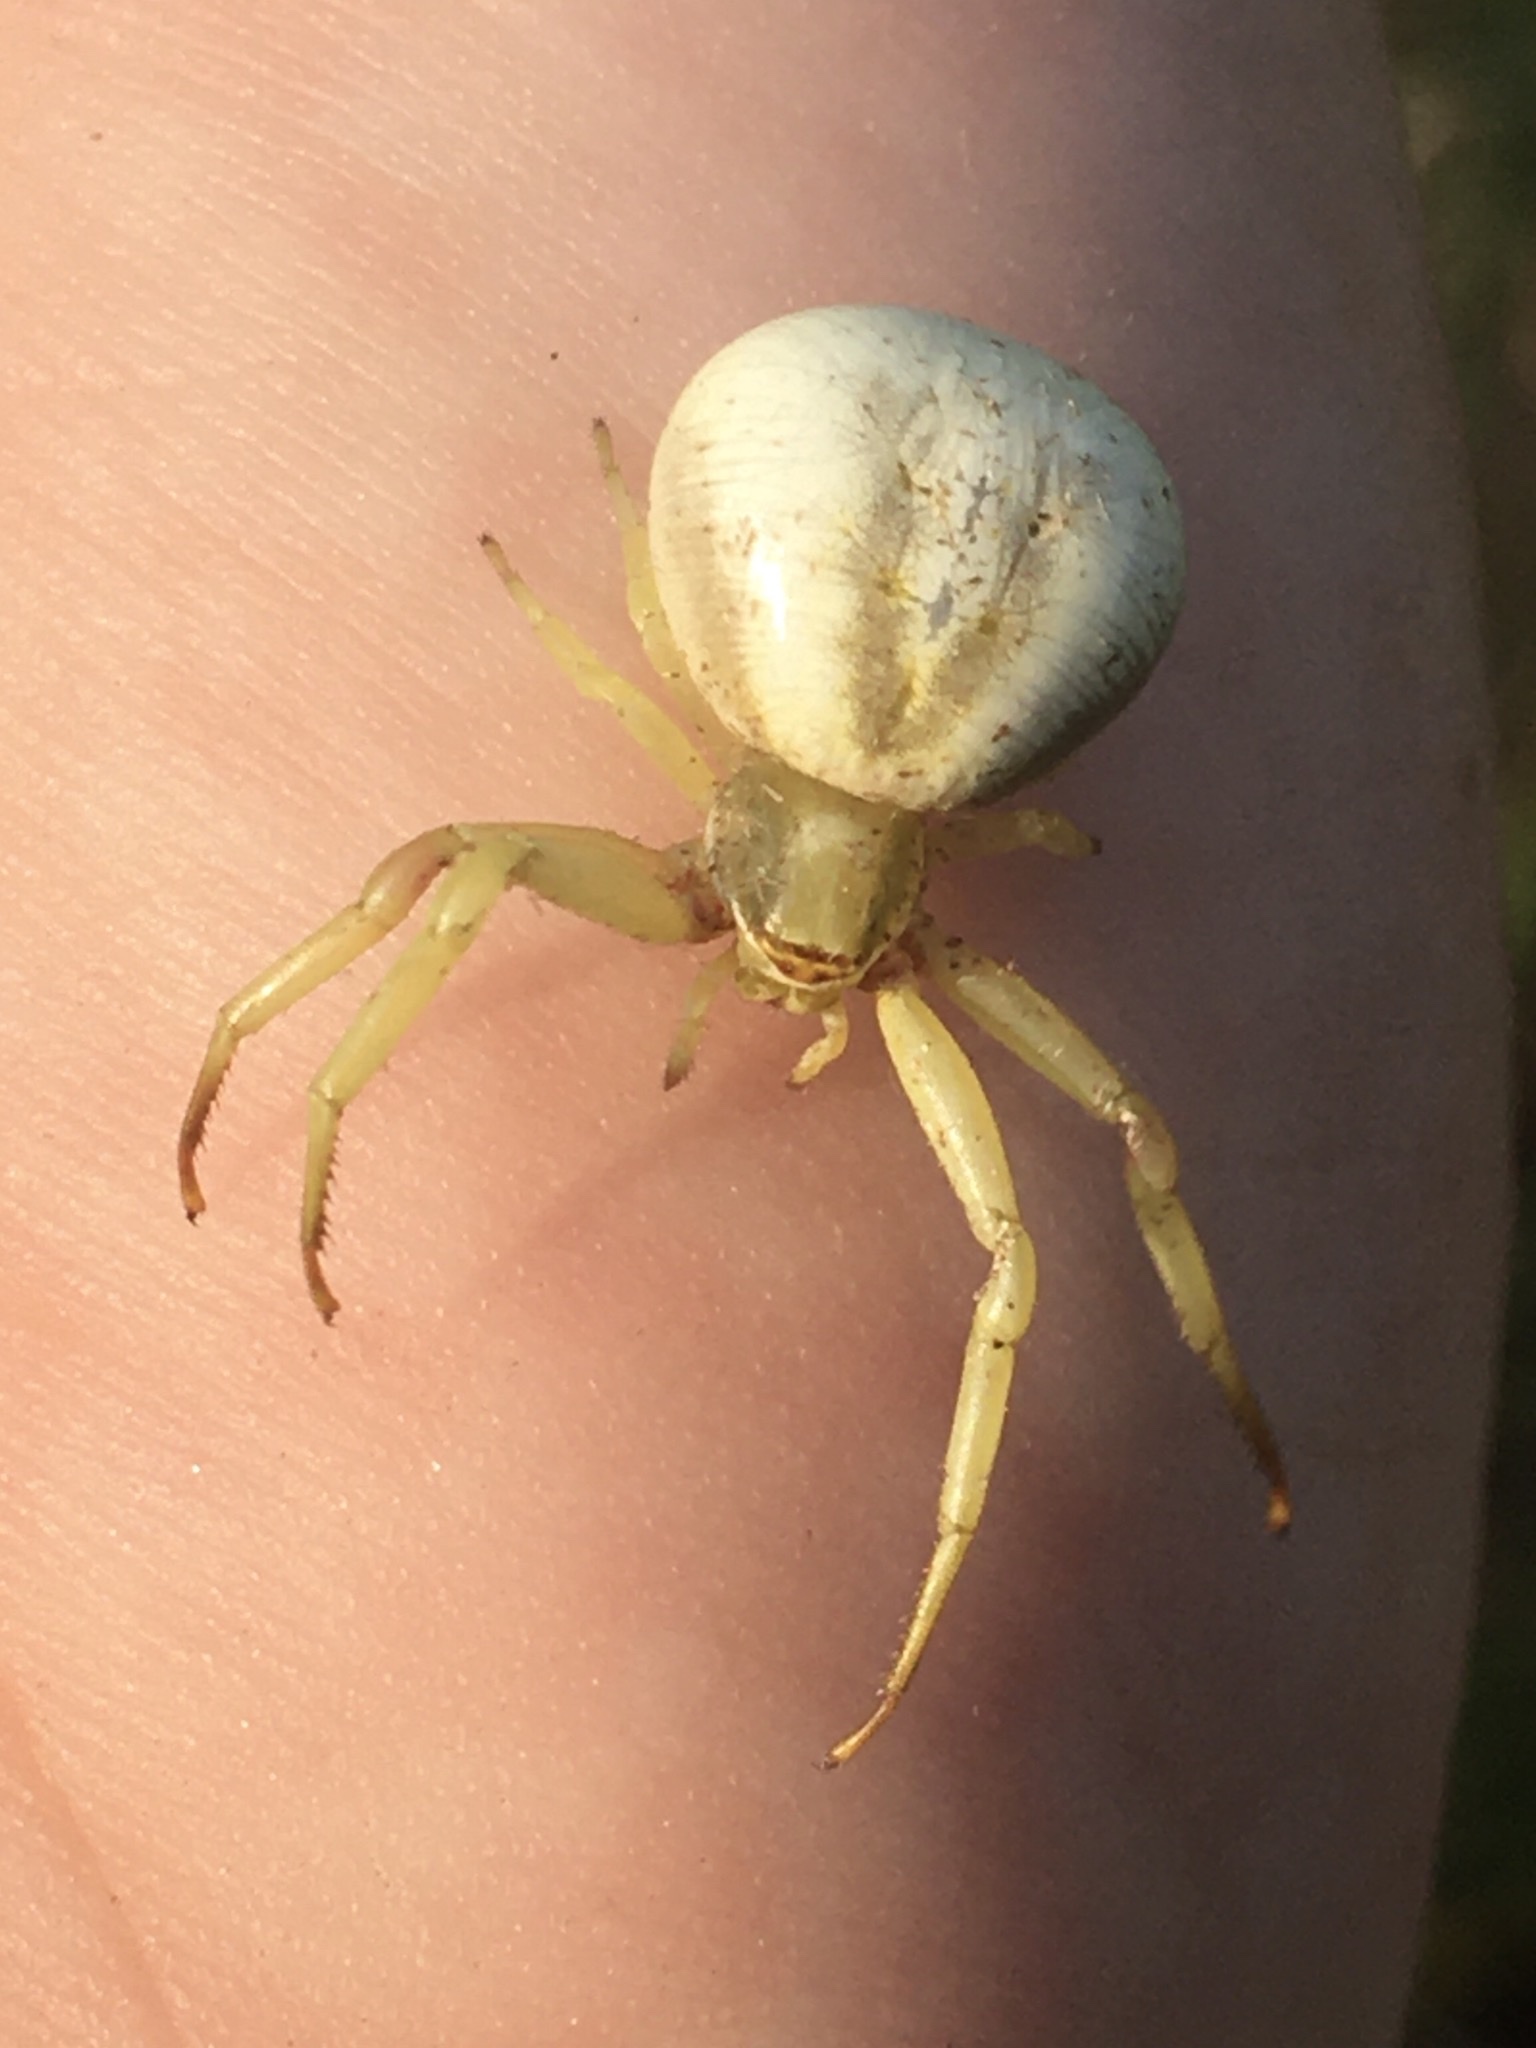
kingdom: Animalia
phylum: Arthropoda
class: Arachnida
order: Araneae
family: Thomisidae
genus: Misumenoides
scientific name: Misumenoides formosipes
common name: White-banded crab spider
